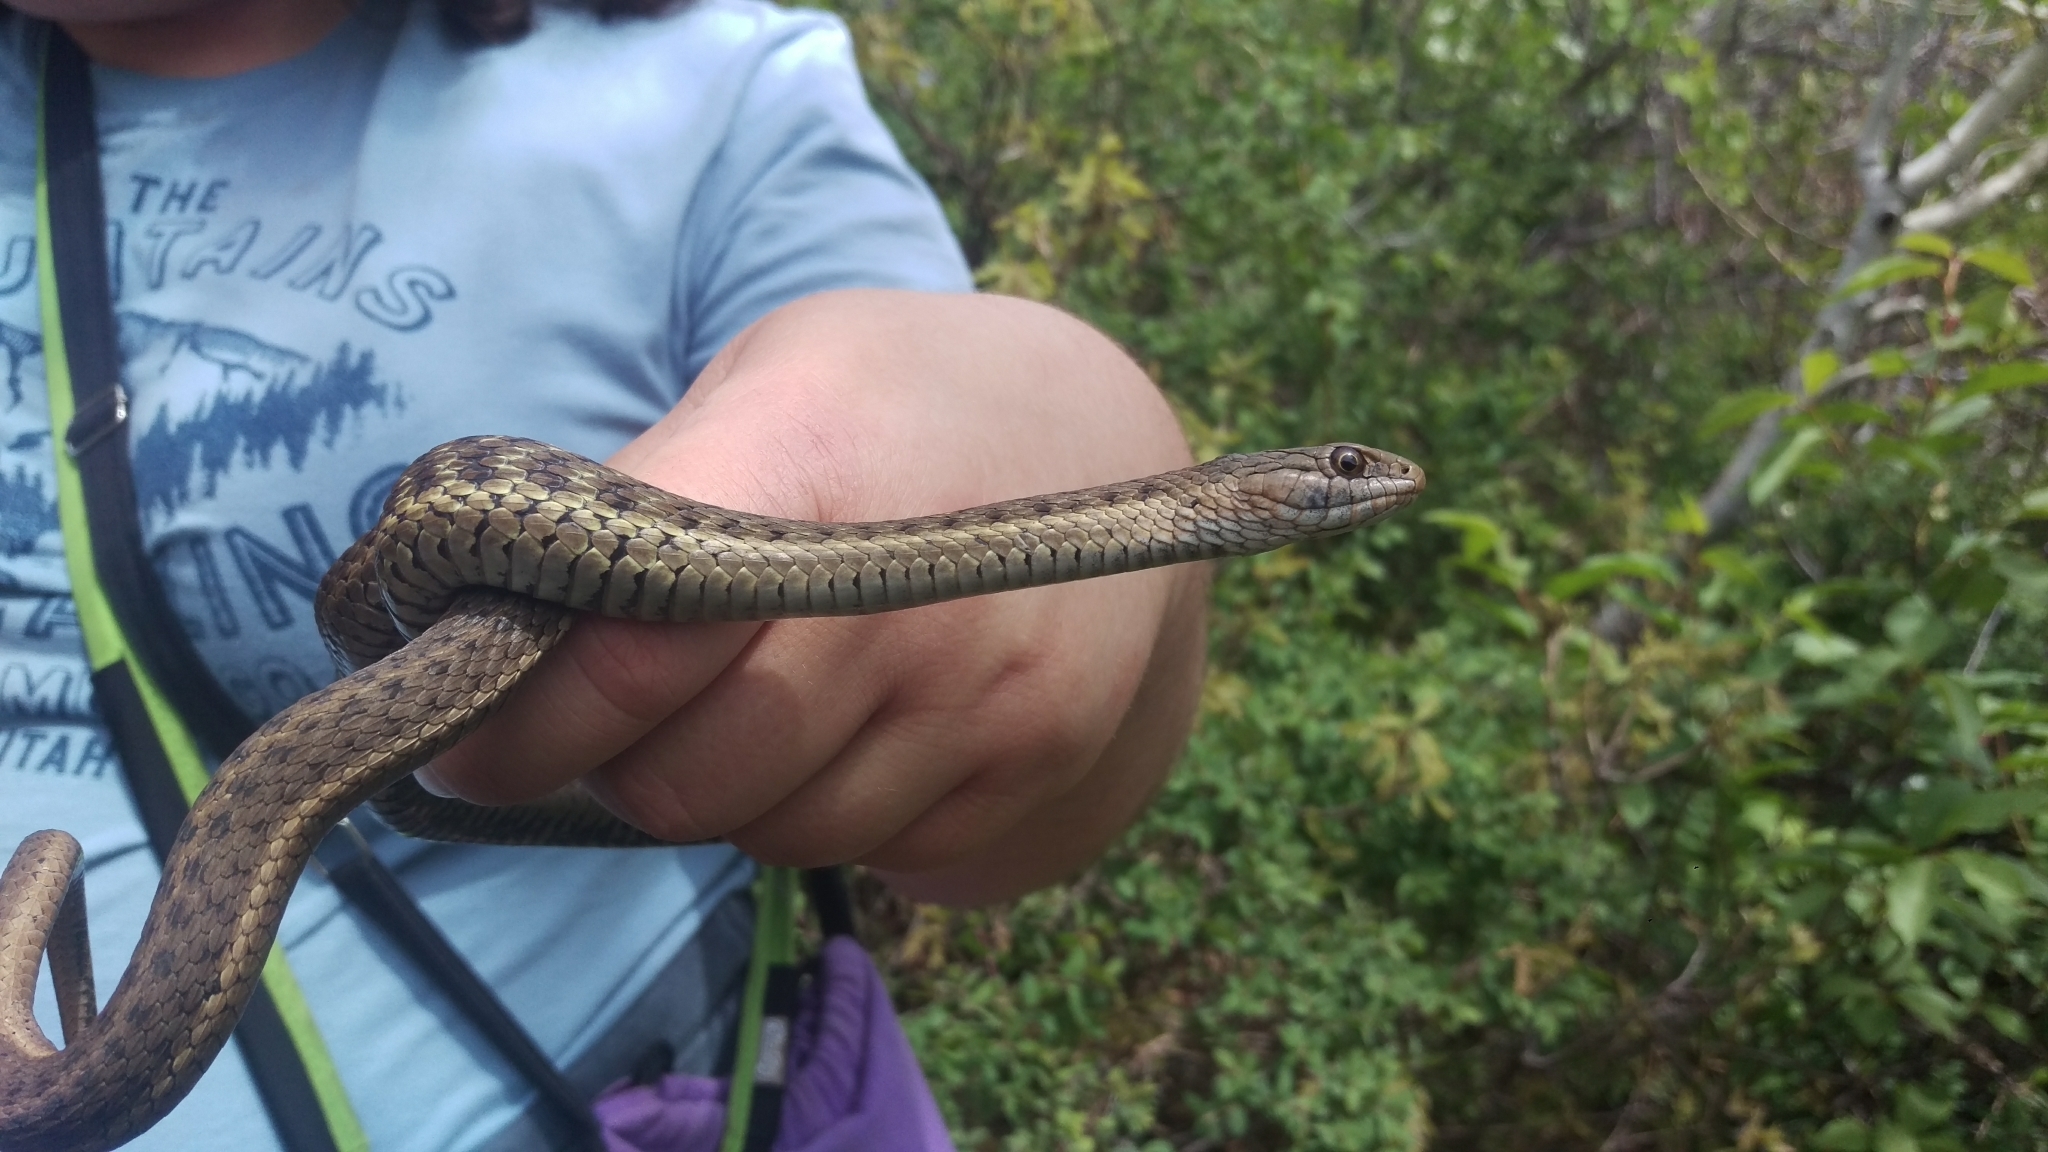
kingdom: Animalia
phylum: Chordata
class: Squamata
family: Colubridae
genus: Thamnophis
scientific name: Thamnophis elegans
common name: Western terrestrial garter snake
